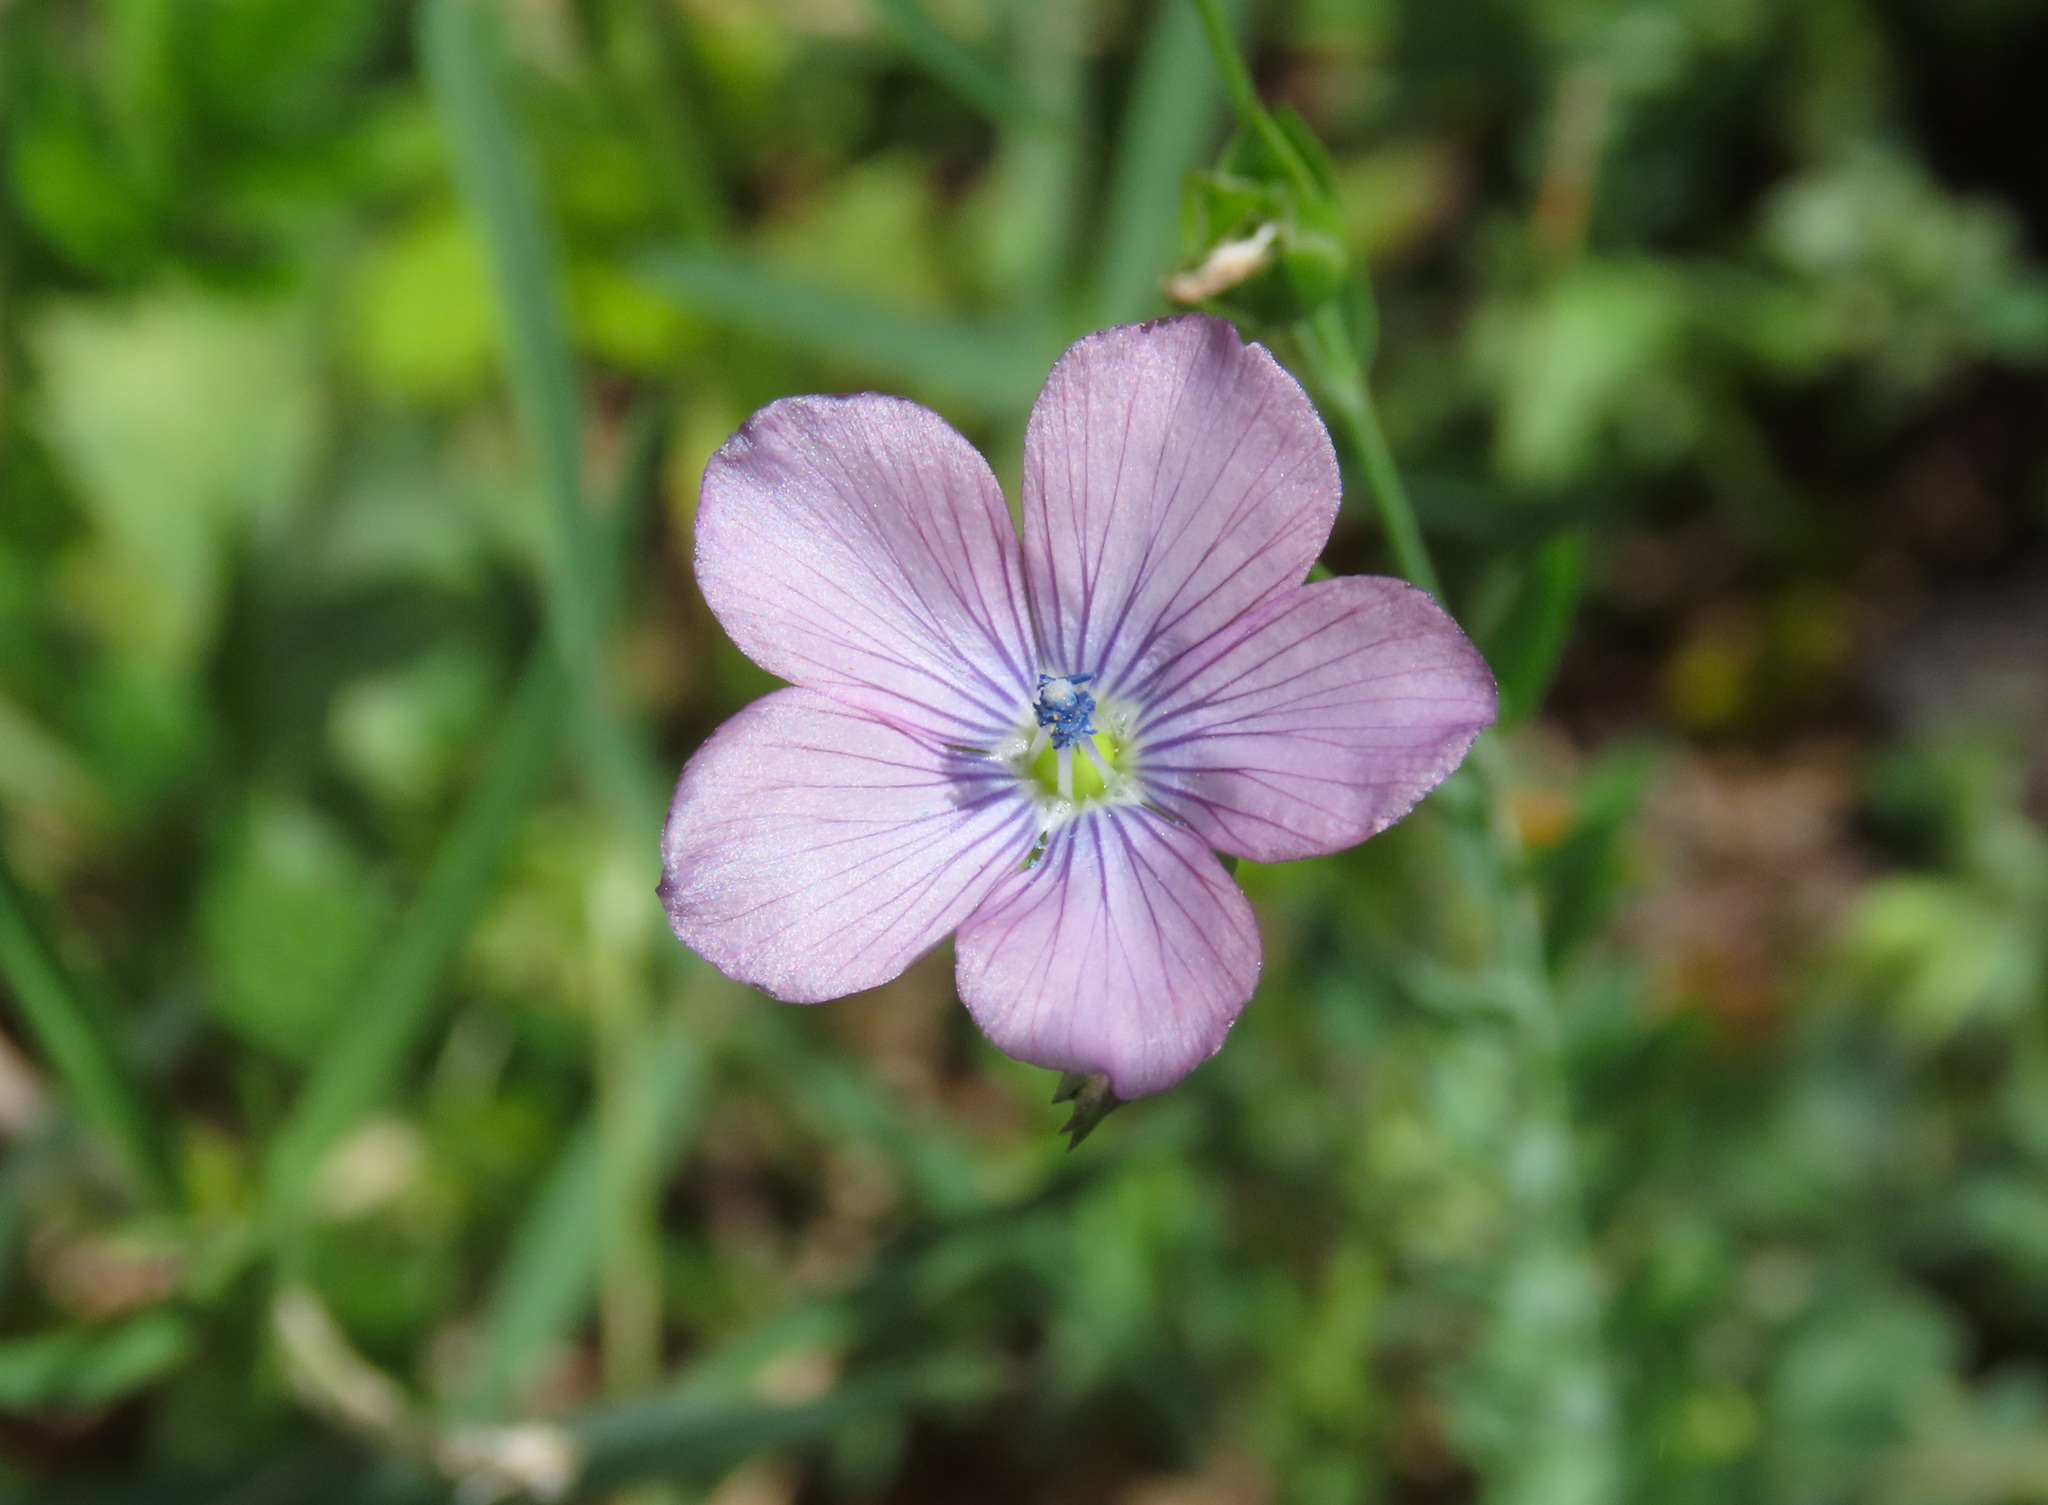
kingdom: Plantae
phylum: Tracheophyta
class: Magnoliopsida
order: Malpighiales
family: Linaceae
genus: Linum
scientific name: Linum usitatissimum
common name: Flax
